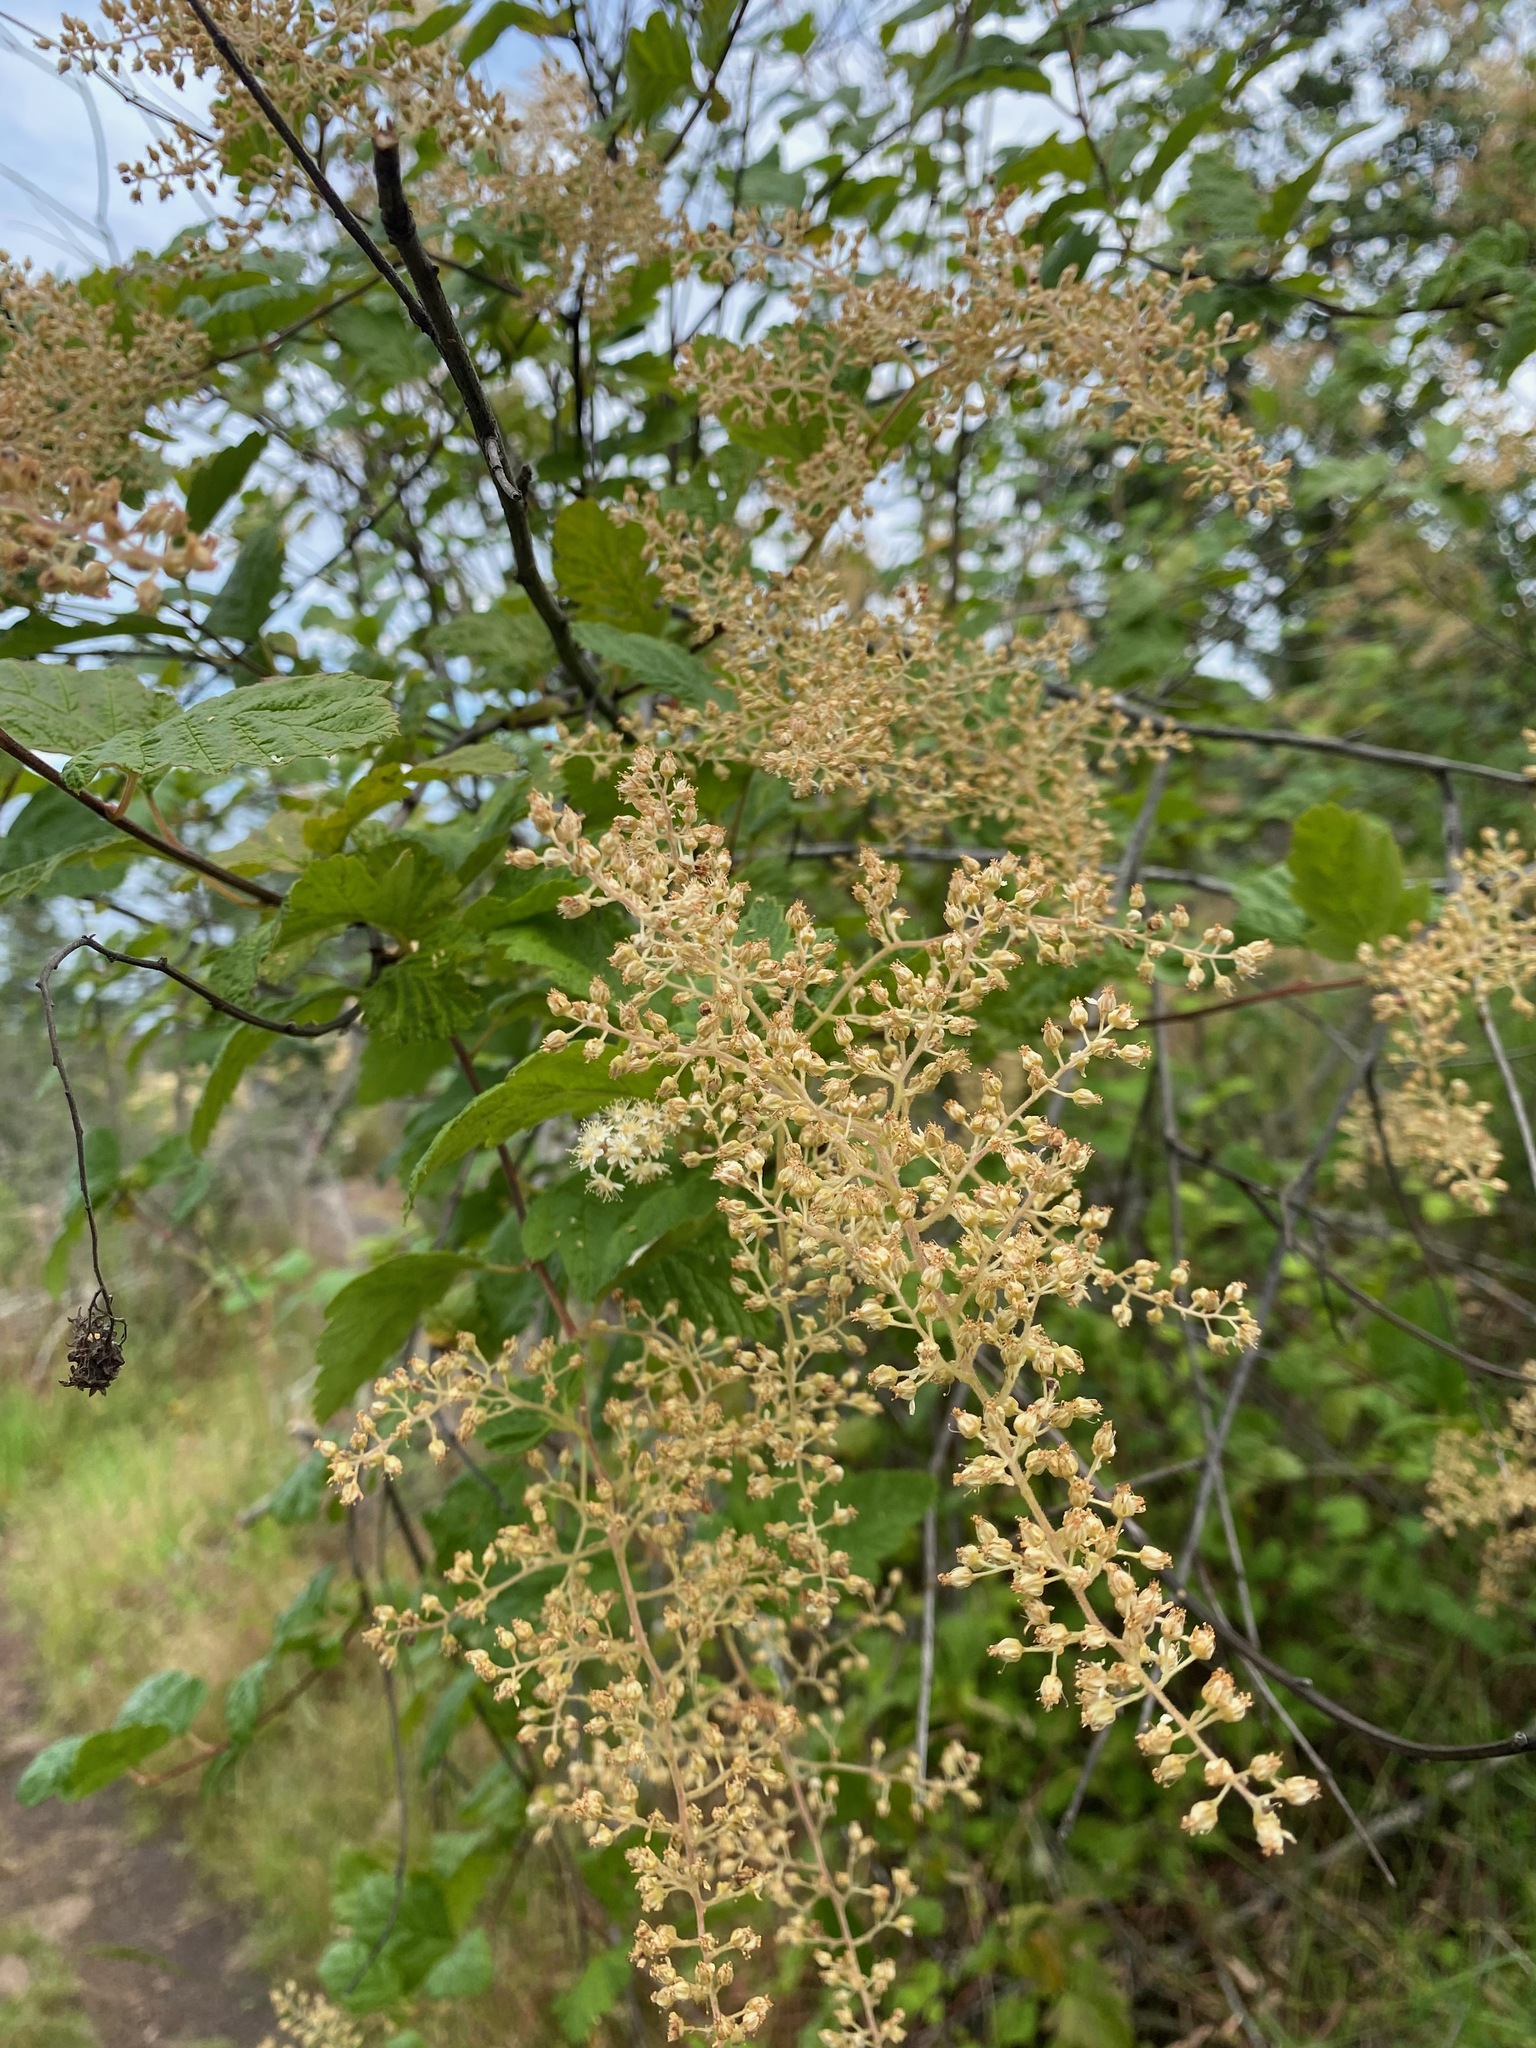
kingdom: Plantae
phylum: Tracheophyta
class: Magnoliopsida
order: Rosales
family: Rosaceae
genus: Holodiscus
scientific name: Holodiscus discolor
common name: Oceanspray
